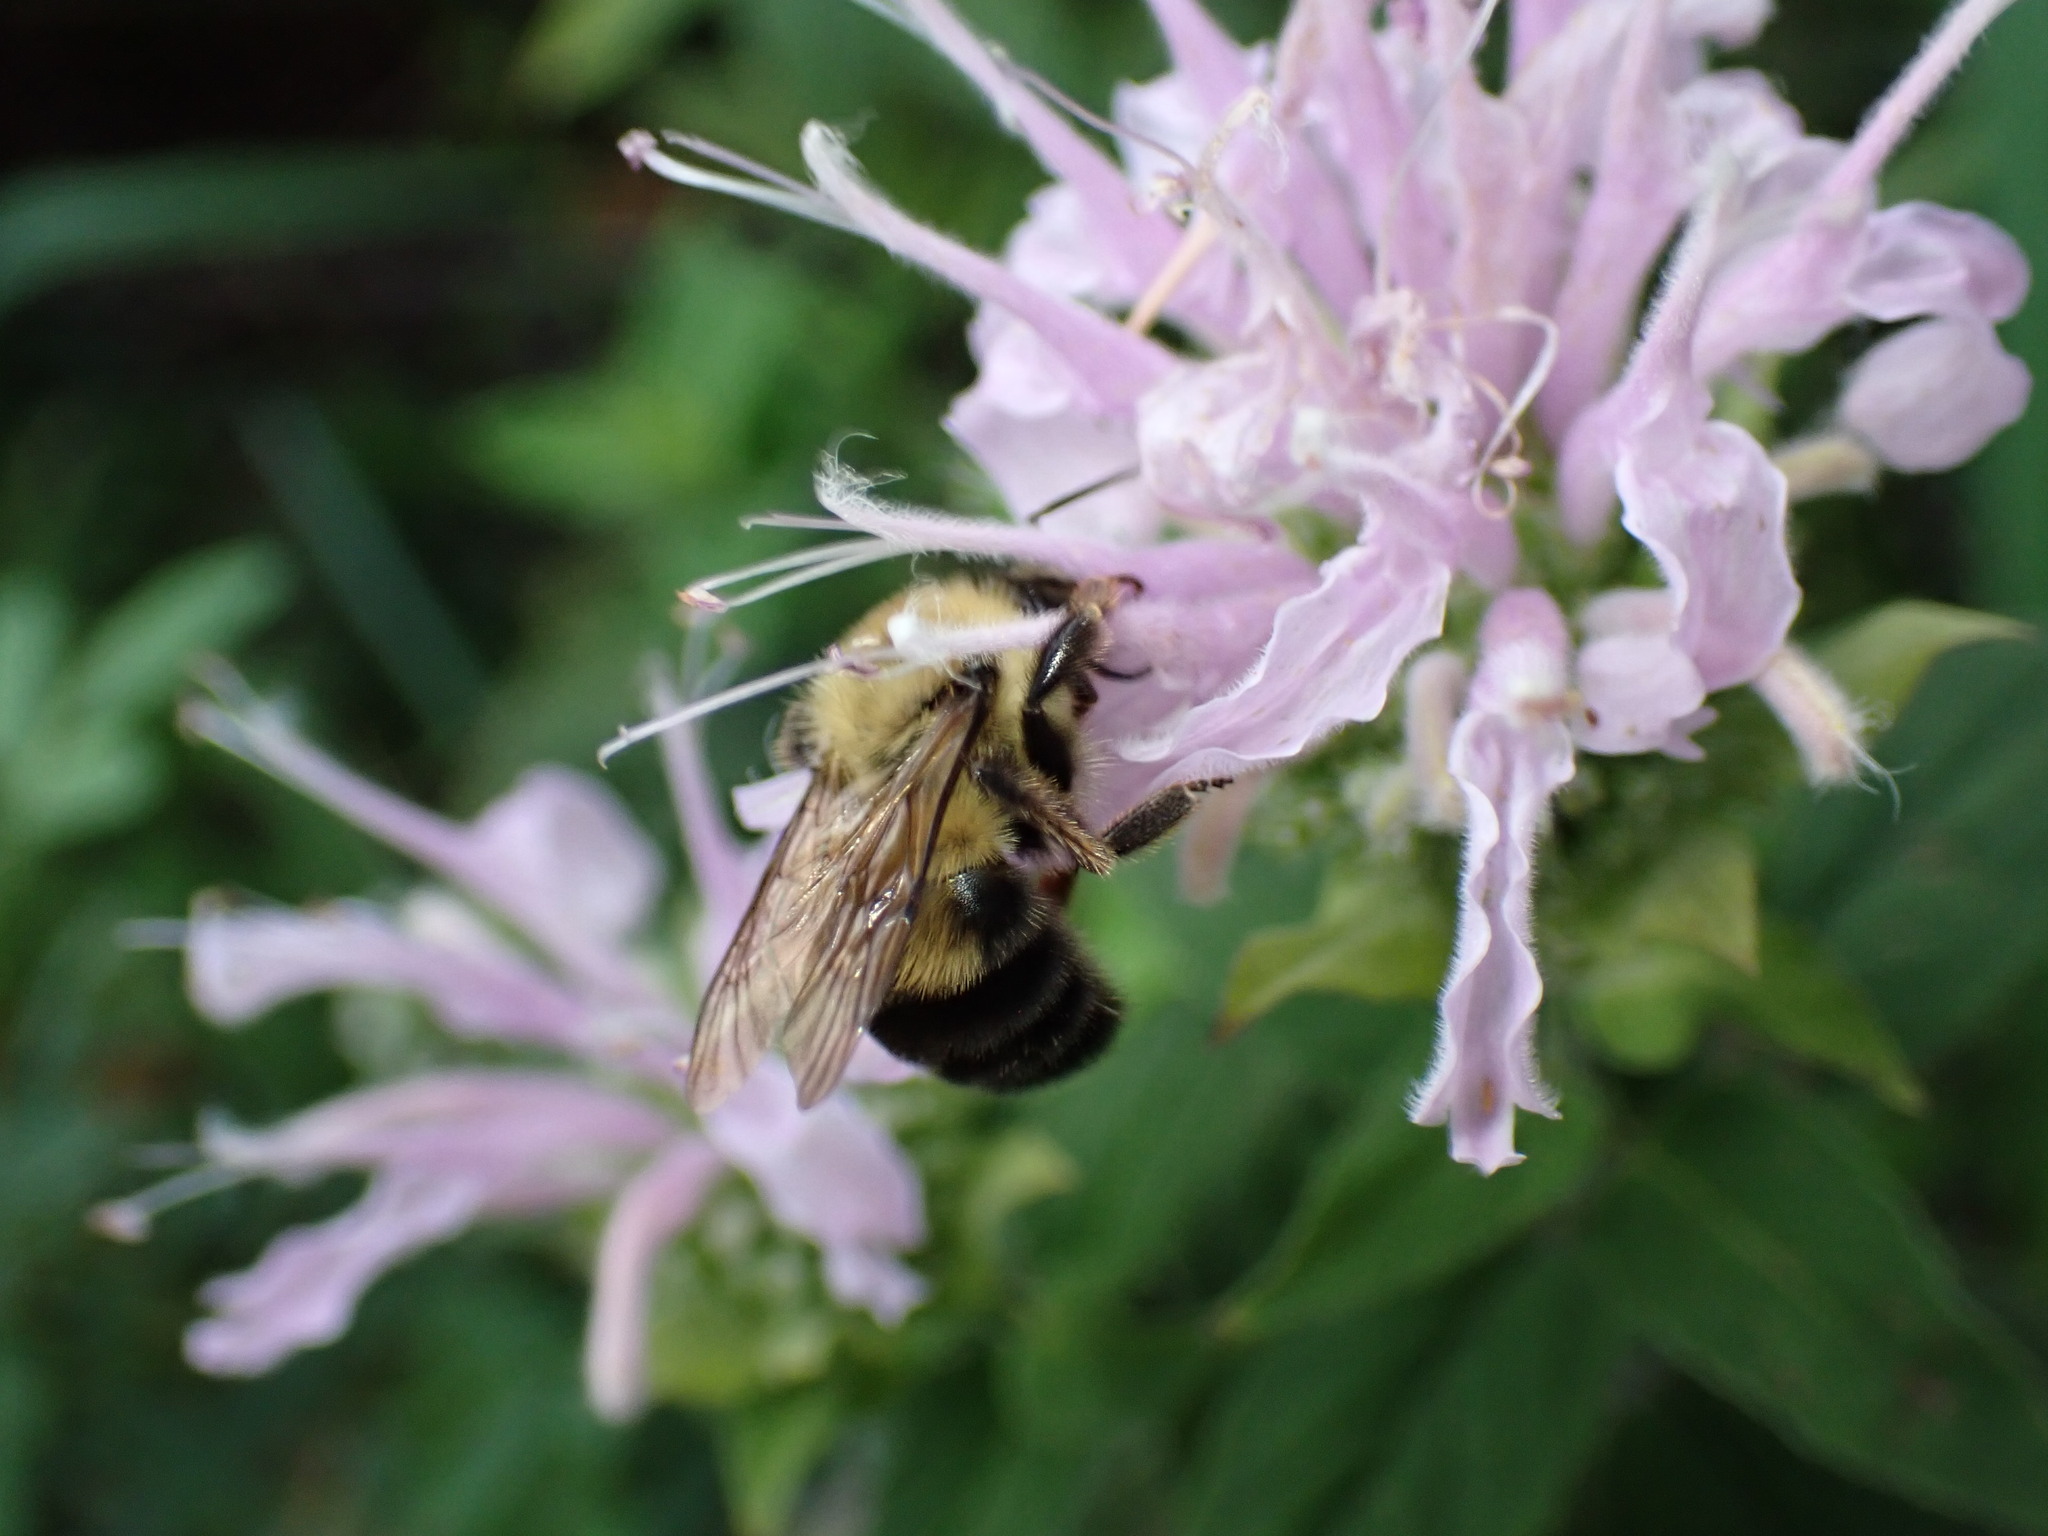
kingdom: Animalia
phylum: Arthropoda
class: Insecta
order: Hymenoptera
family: Apidae
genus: Bombus
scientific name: Bombus bimaculatus
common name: Two-spotted bumble bee
